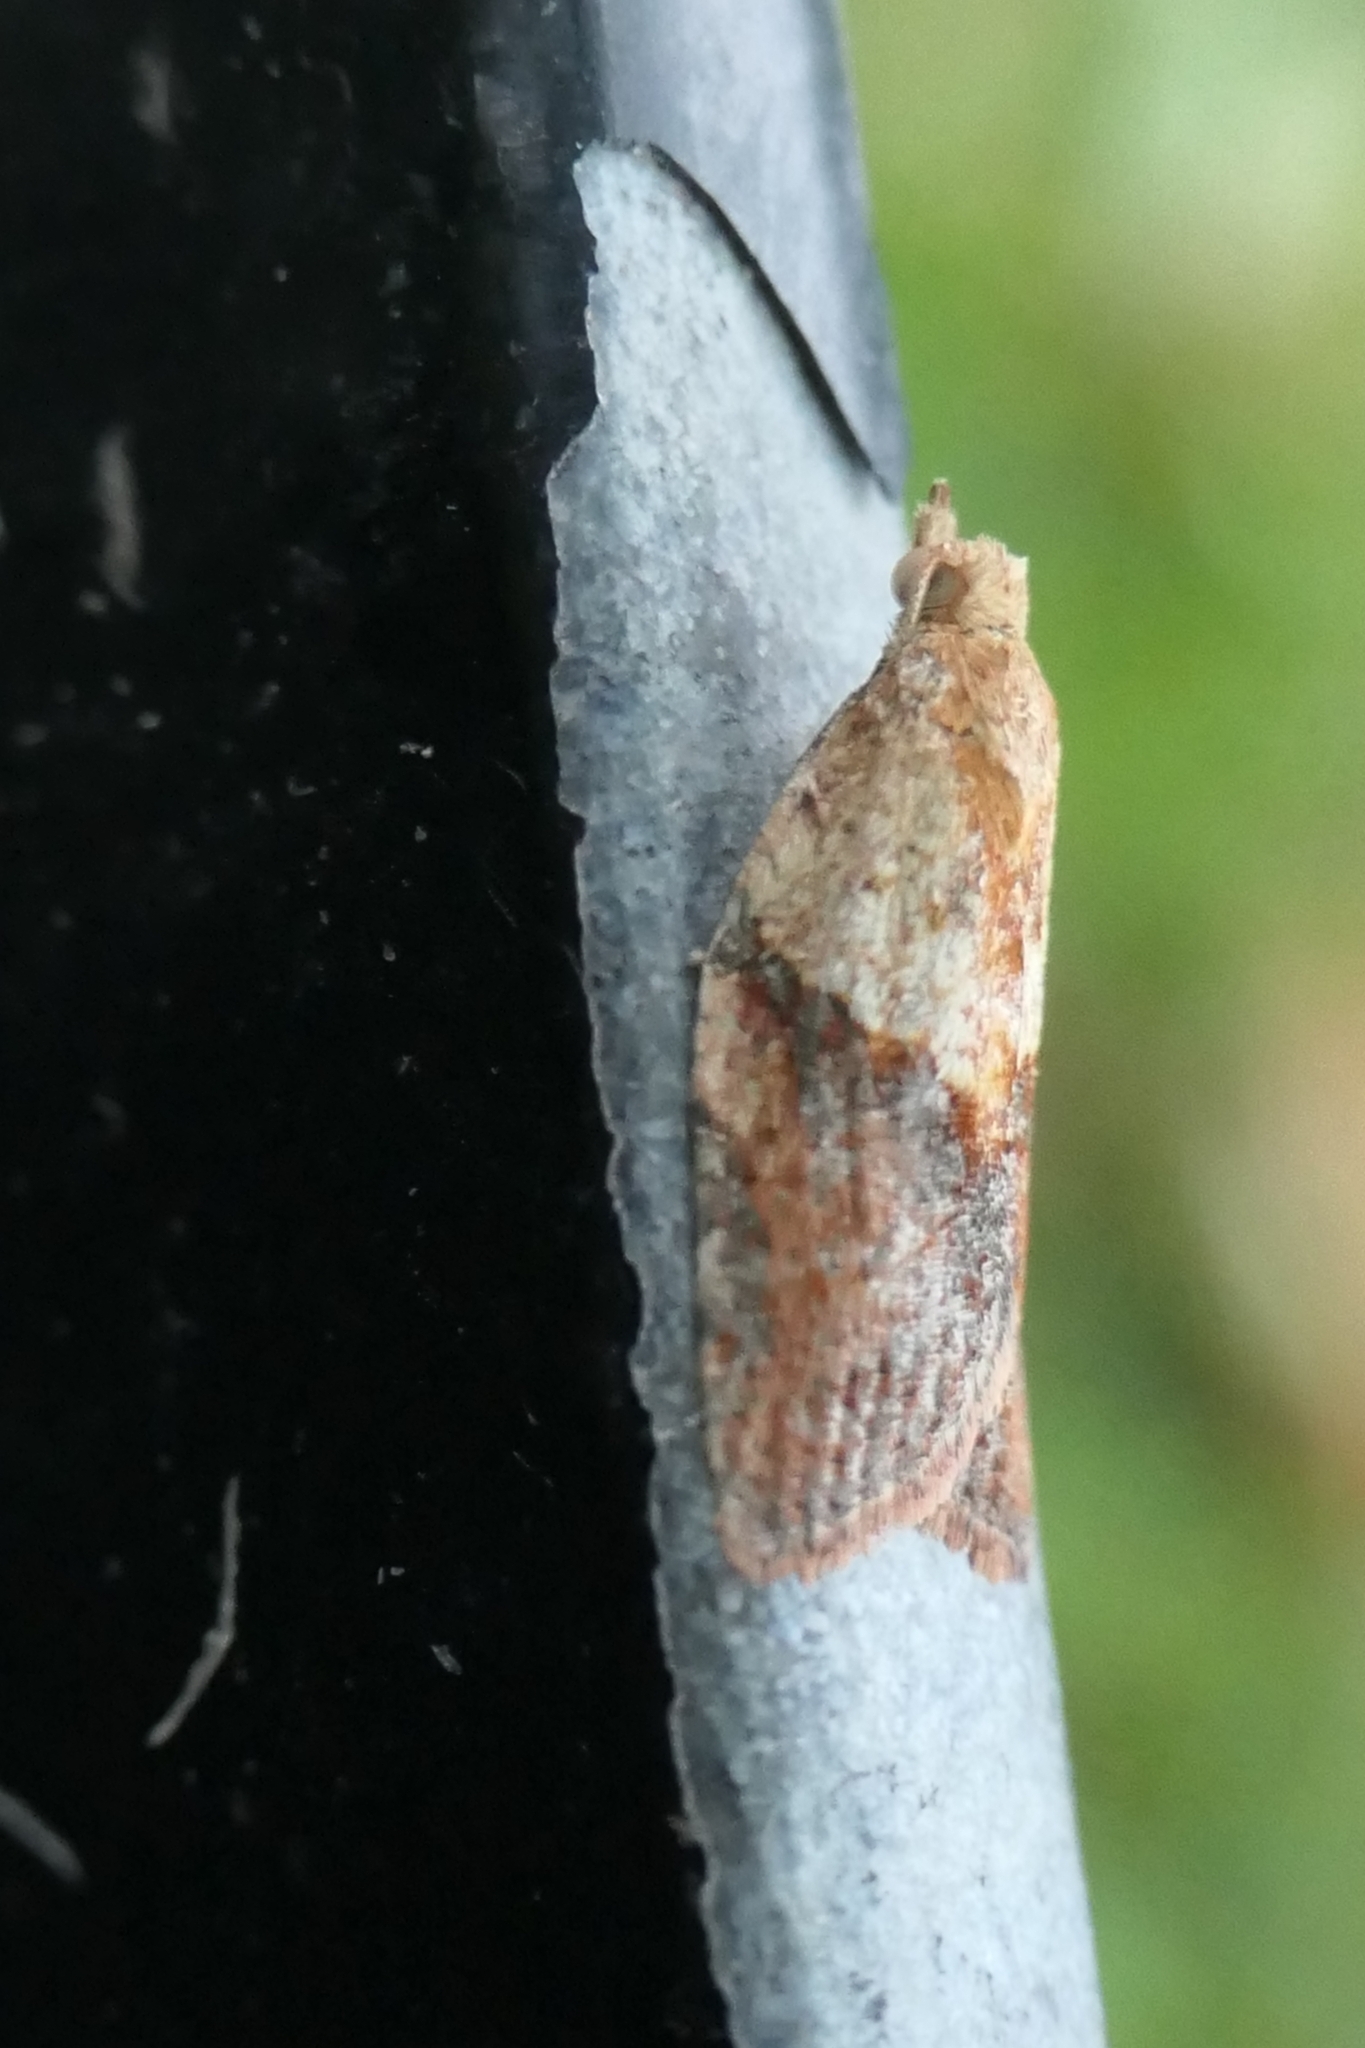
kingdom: Animalia
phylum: Arthropoda
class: Insecta
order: Lepidoptera
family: Tortricidae
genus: Epiphyas
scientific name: Epiphyas postvittana
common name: Light brown apple moth
